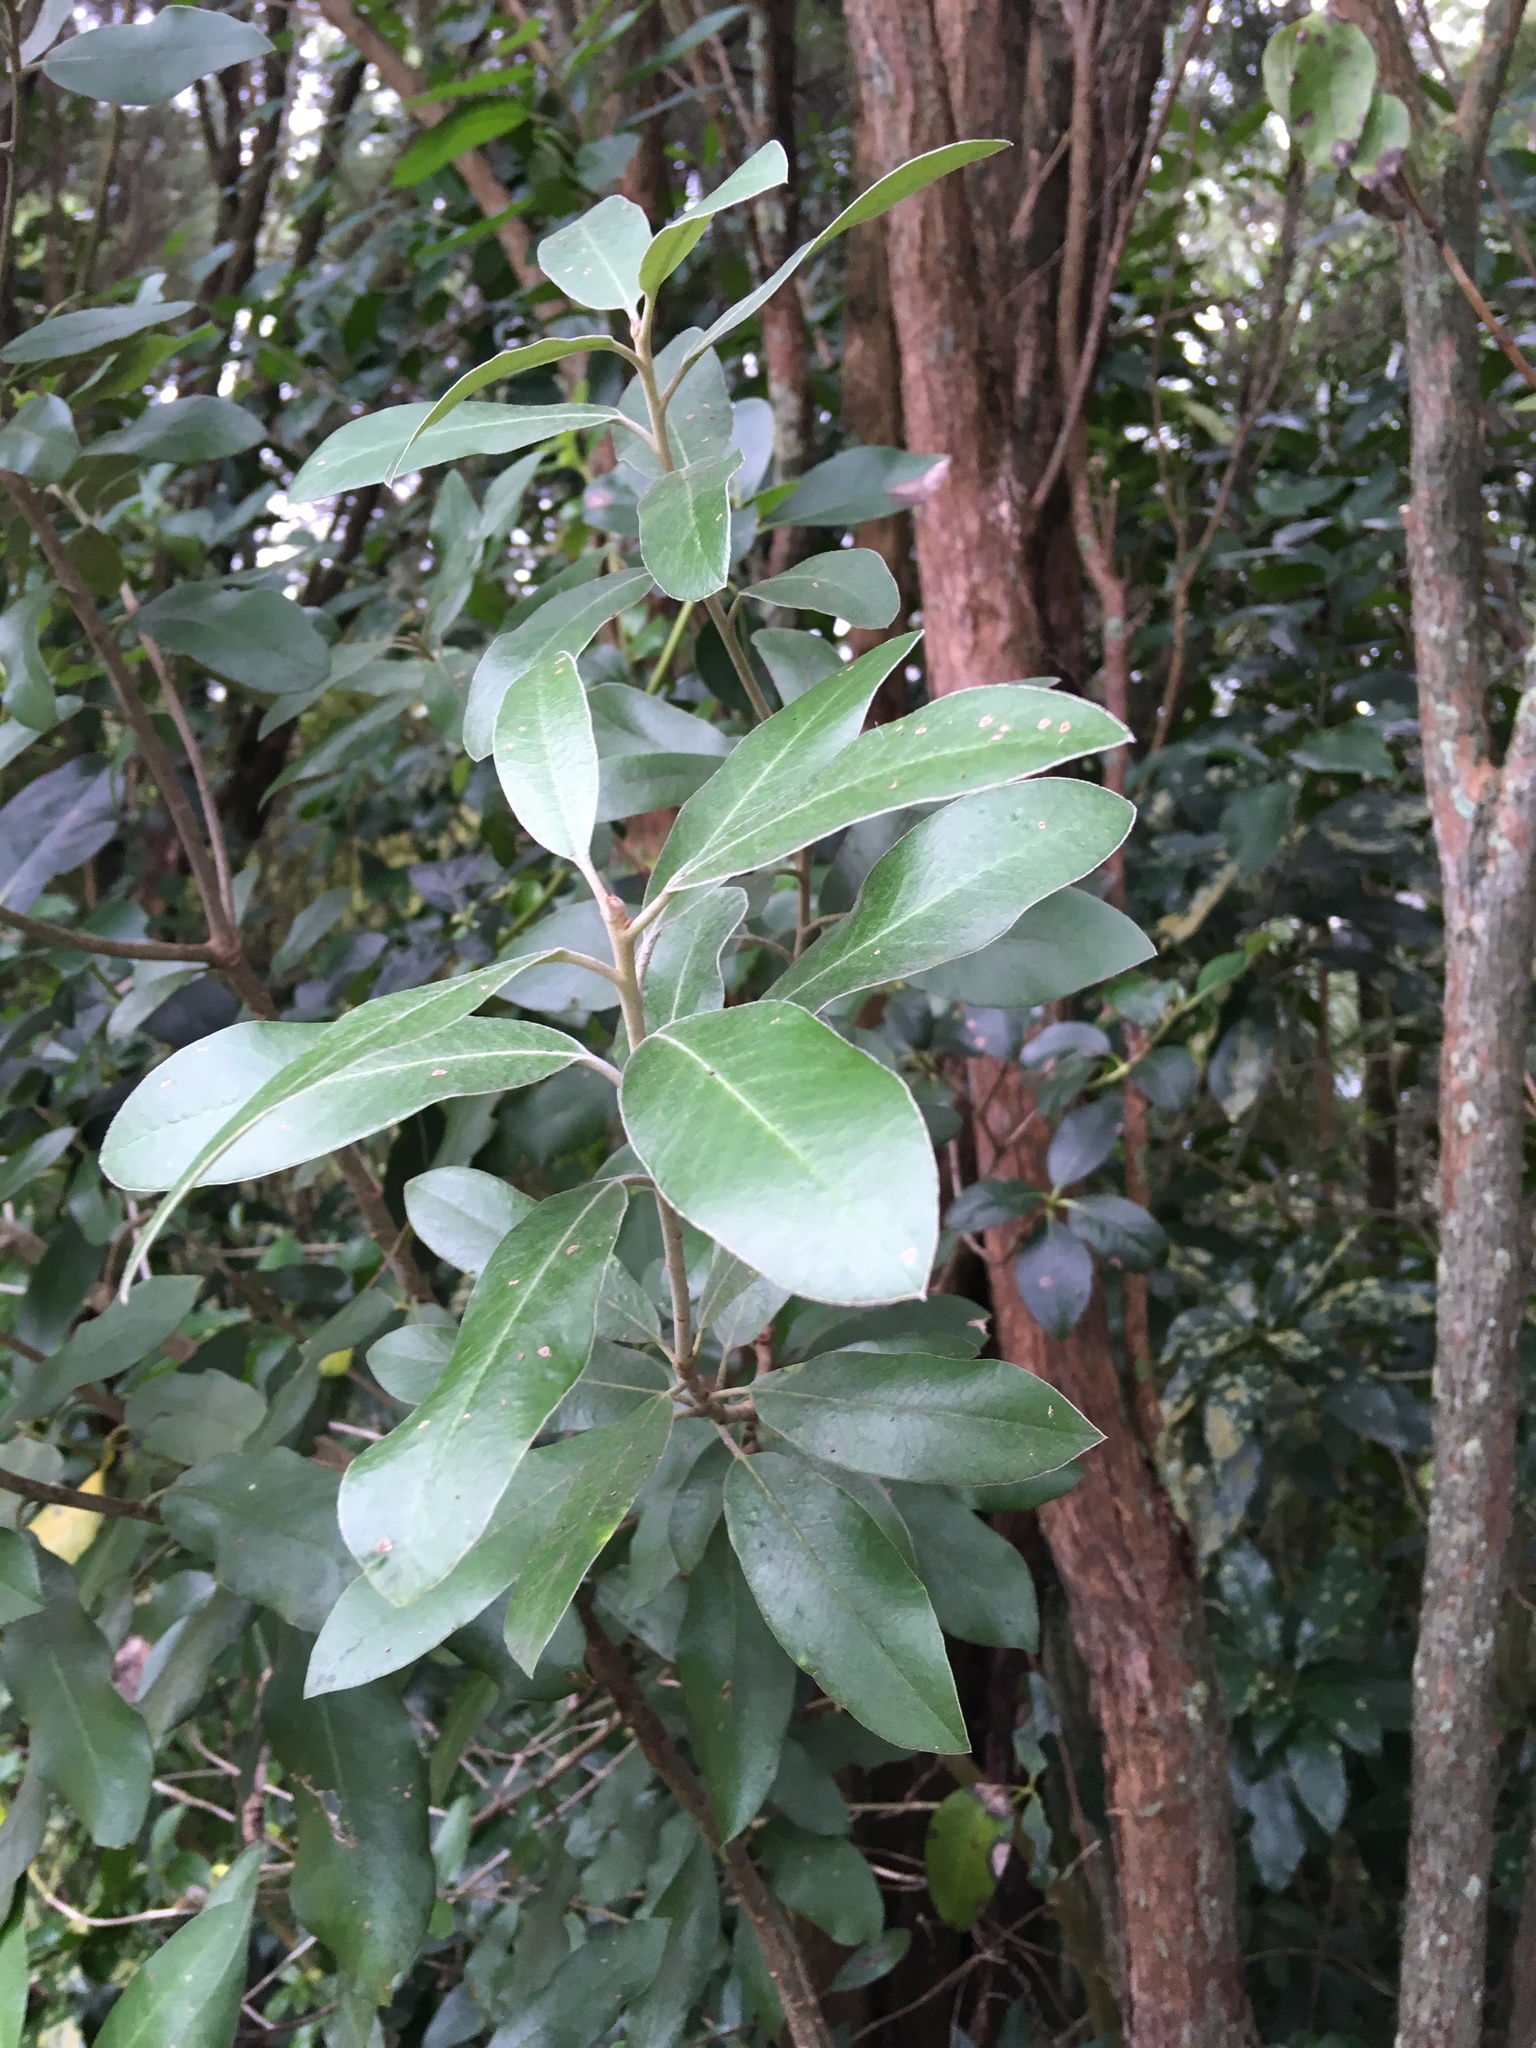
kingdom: Plantae
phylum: Tracheophyta
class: Magnoliopsida
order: Apiales
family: Pittosporaceae
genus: Pittosporum
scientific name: Pittosporum ralphii
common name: Ralph's desertwillow
